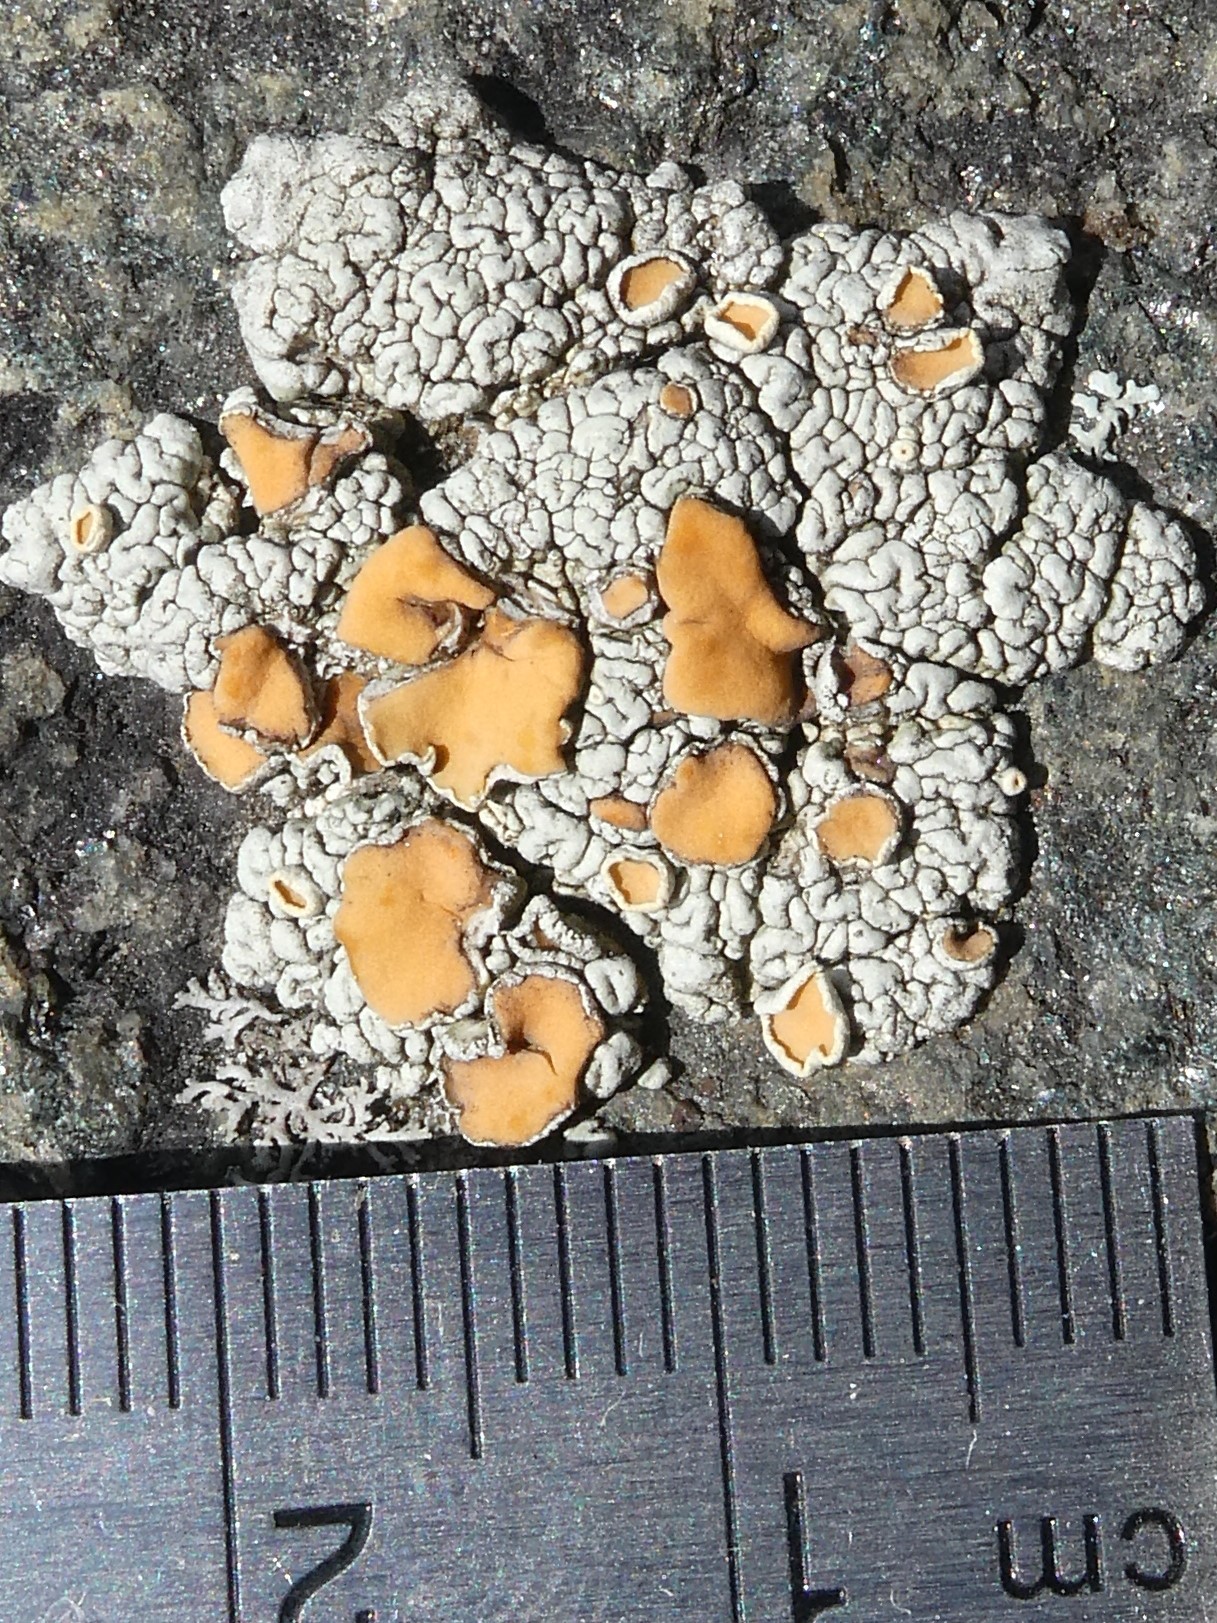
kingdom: Fungi
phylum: Ascomycota
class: Lecanoromycetes
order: Lecanorales
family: Lecanoraceae
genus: Sedelnikovaea
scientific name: Sedelnikovaea subdiscrepans
